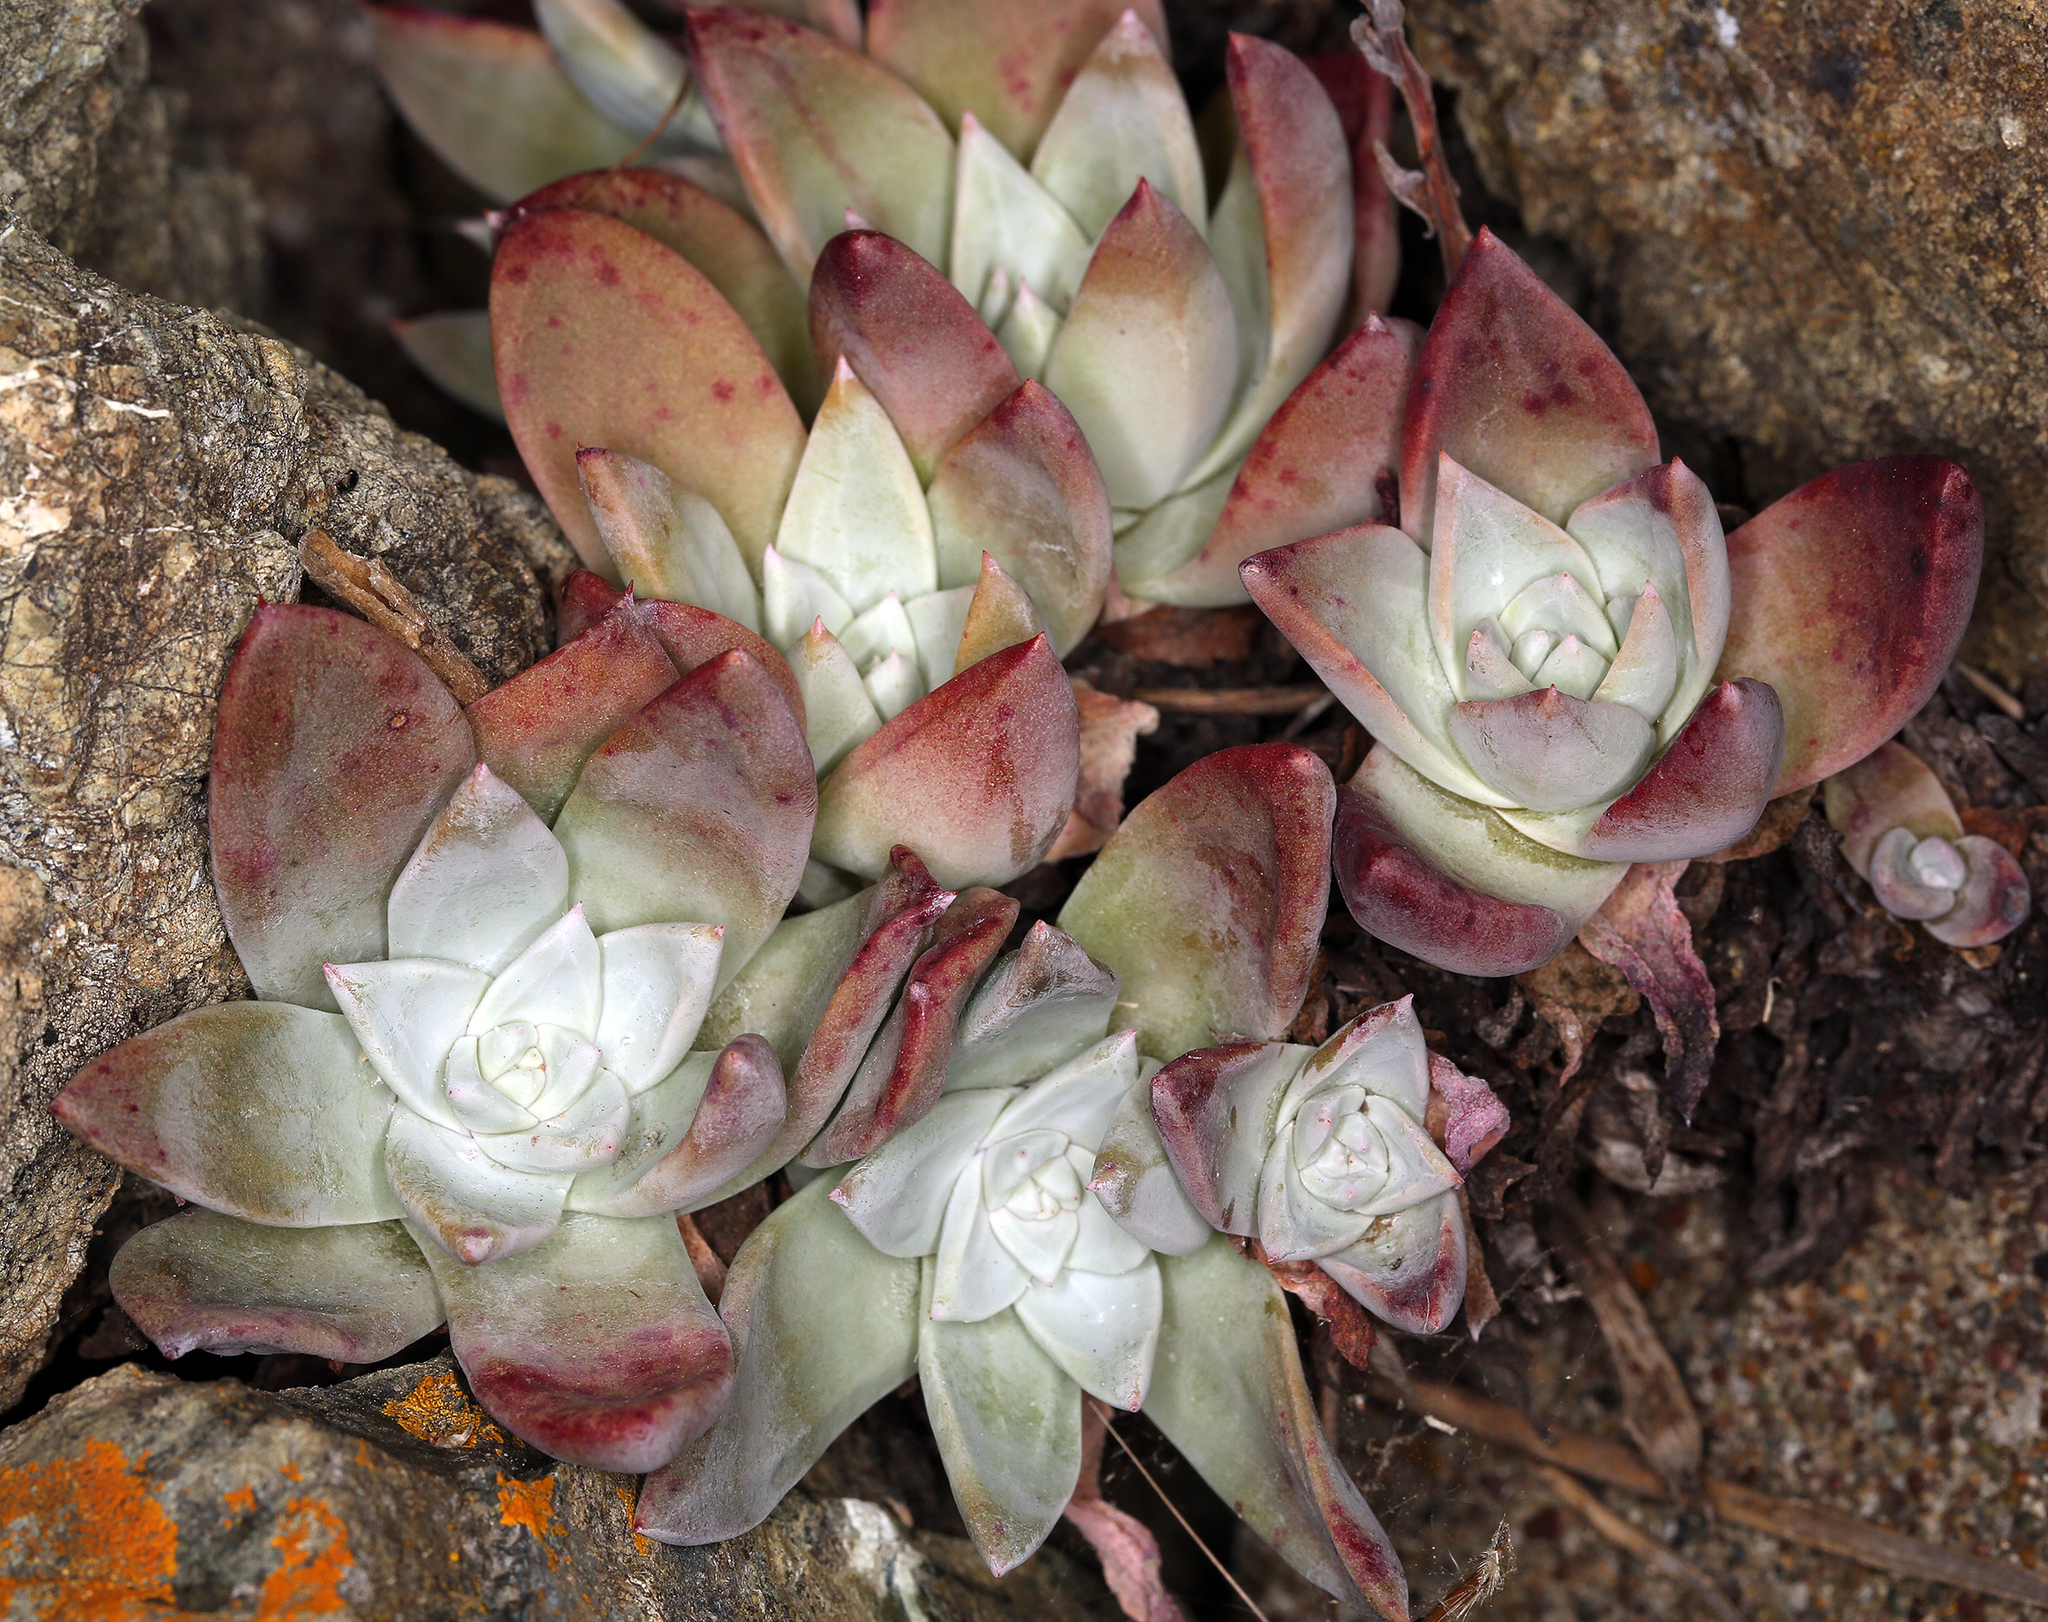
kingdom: Plantae
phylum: Tracheophyta
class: Magnoliopsida
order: Saxifragales
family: Crassulaceae
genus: Dudleya
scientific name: Dudleya farinosa
